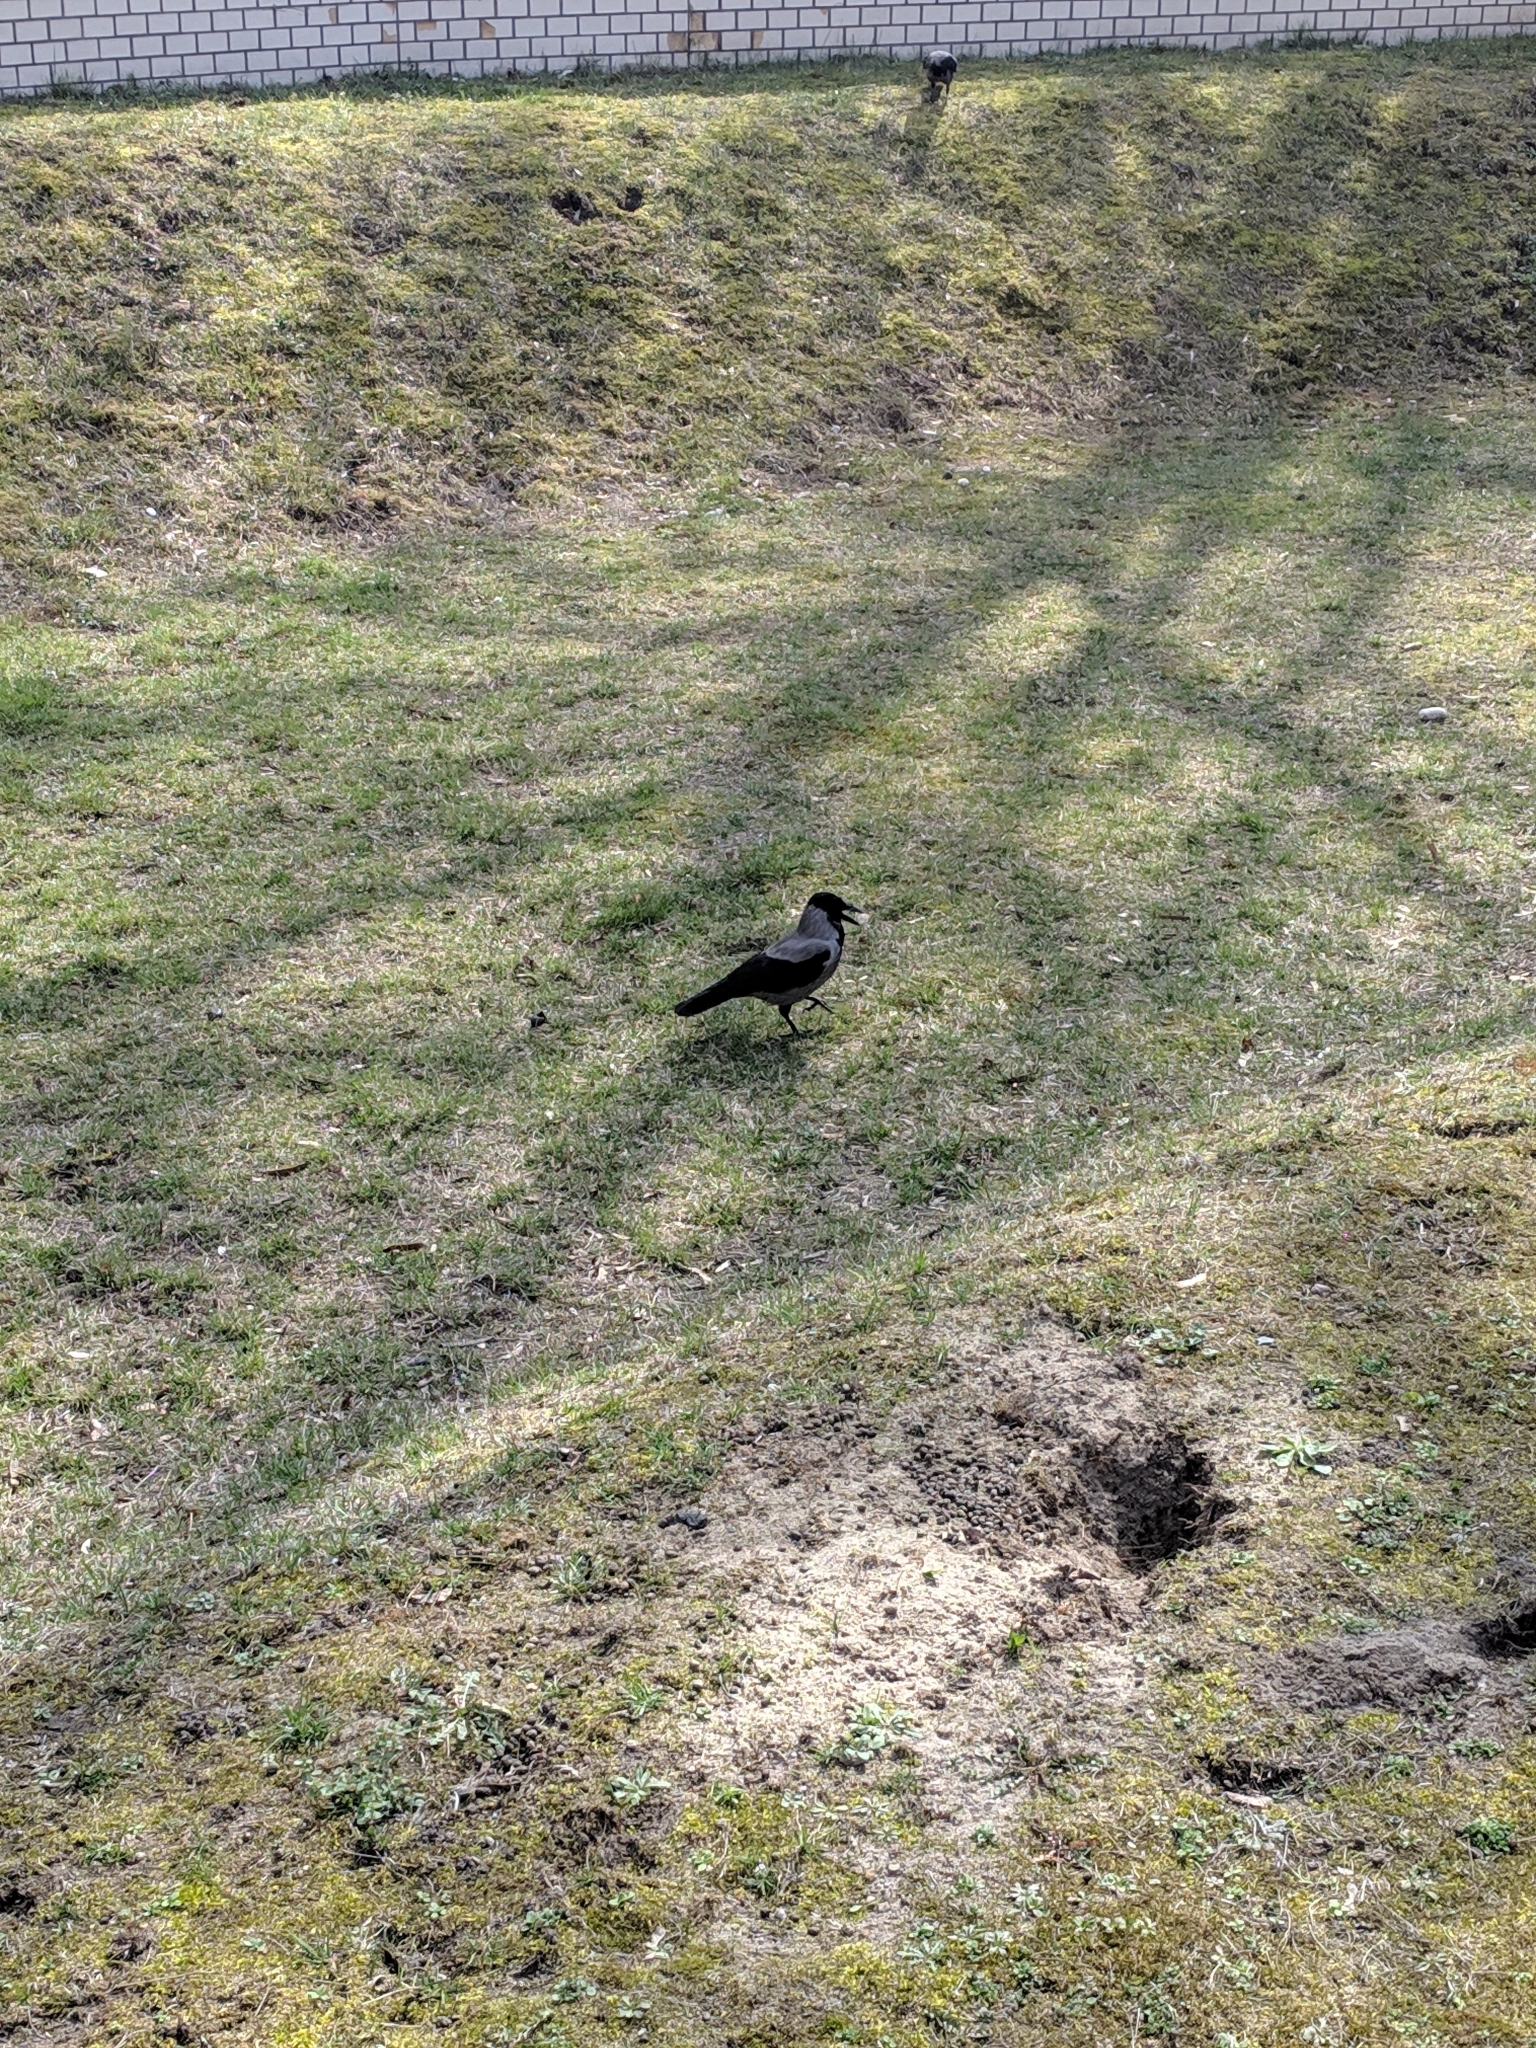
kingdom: Animalia
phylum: Chordata
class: Aves
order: Passeriformes
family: Corvidae
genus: Corvus
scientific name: Corvus cornix
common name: Hooded crow
